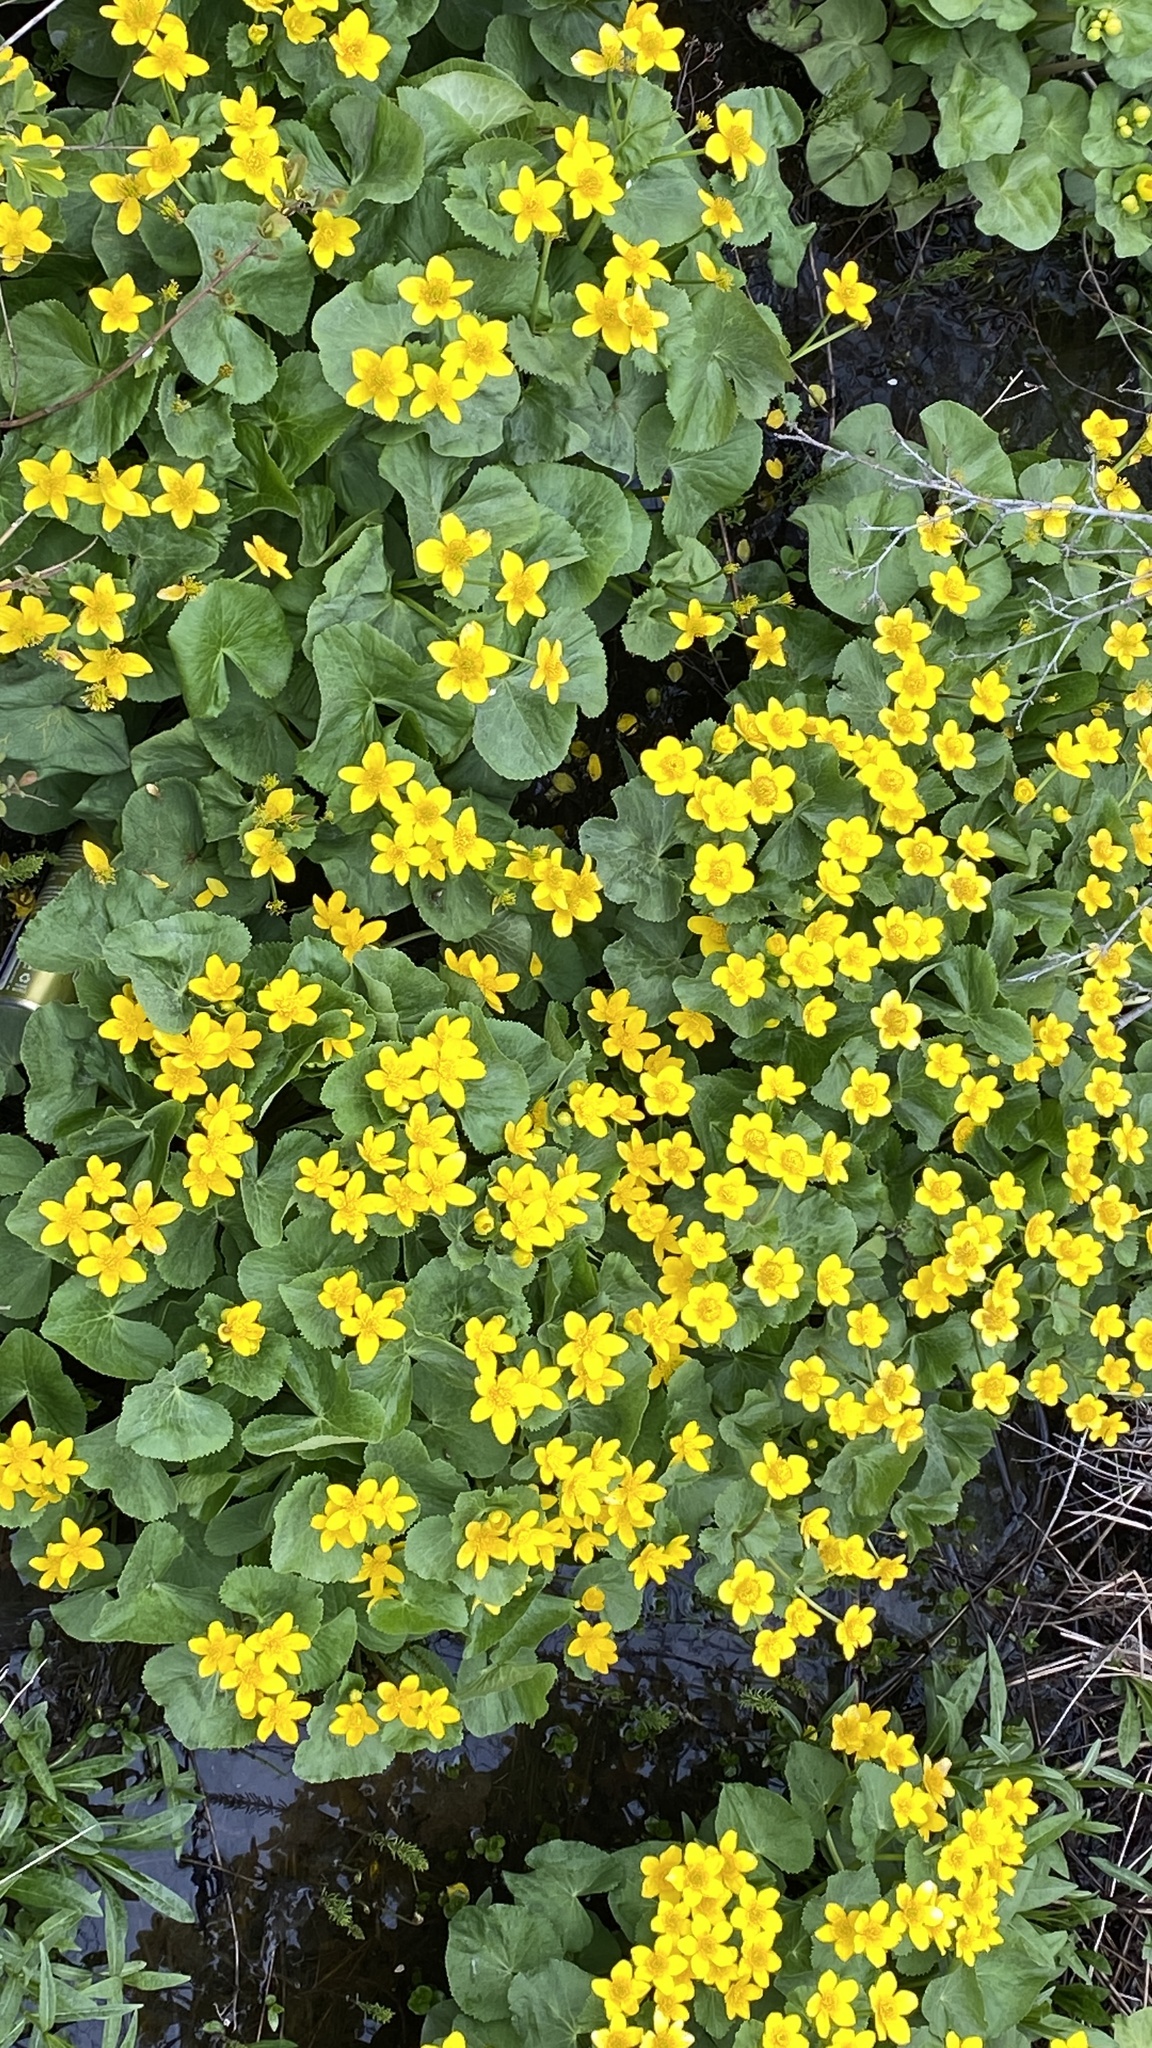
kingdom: Plantae
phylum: Tracheophyta
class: Magnoliopsida
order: Ranunculales
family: Ranunculaceae
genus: Caltha
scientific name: Caltha palustris
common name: Marsh marigold
